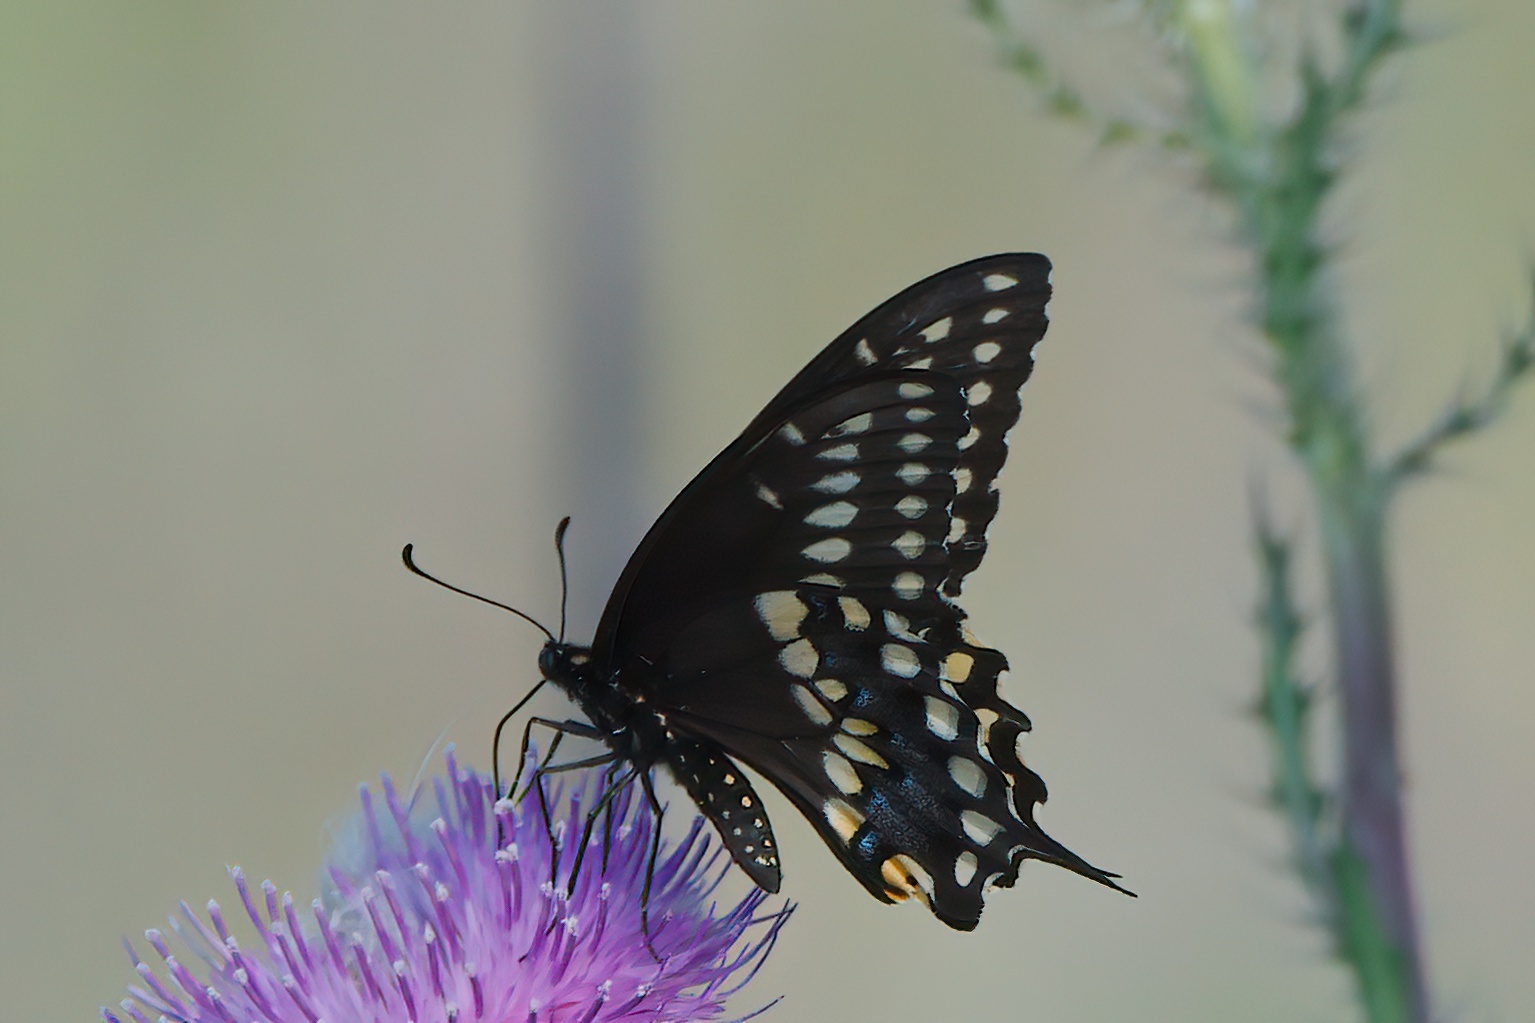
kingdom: Animalia
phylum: Arthropoda
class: Insecta
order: Lepidoptera
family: Papilionidae
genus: Papilio
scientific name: Papilio polyxenes
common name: Black swallowtail
